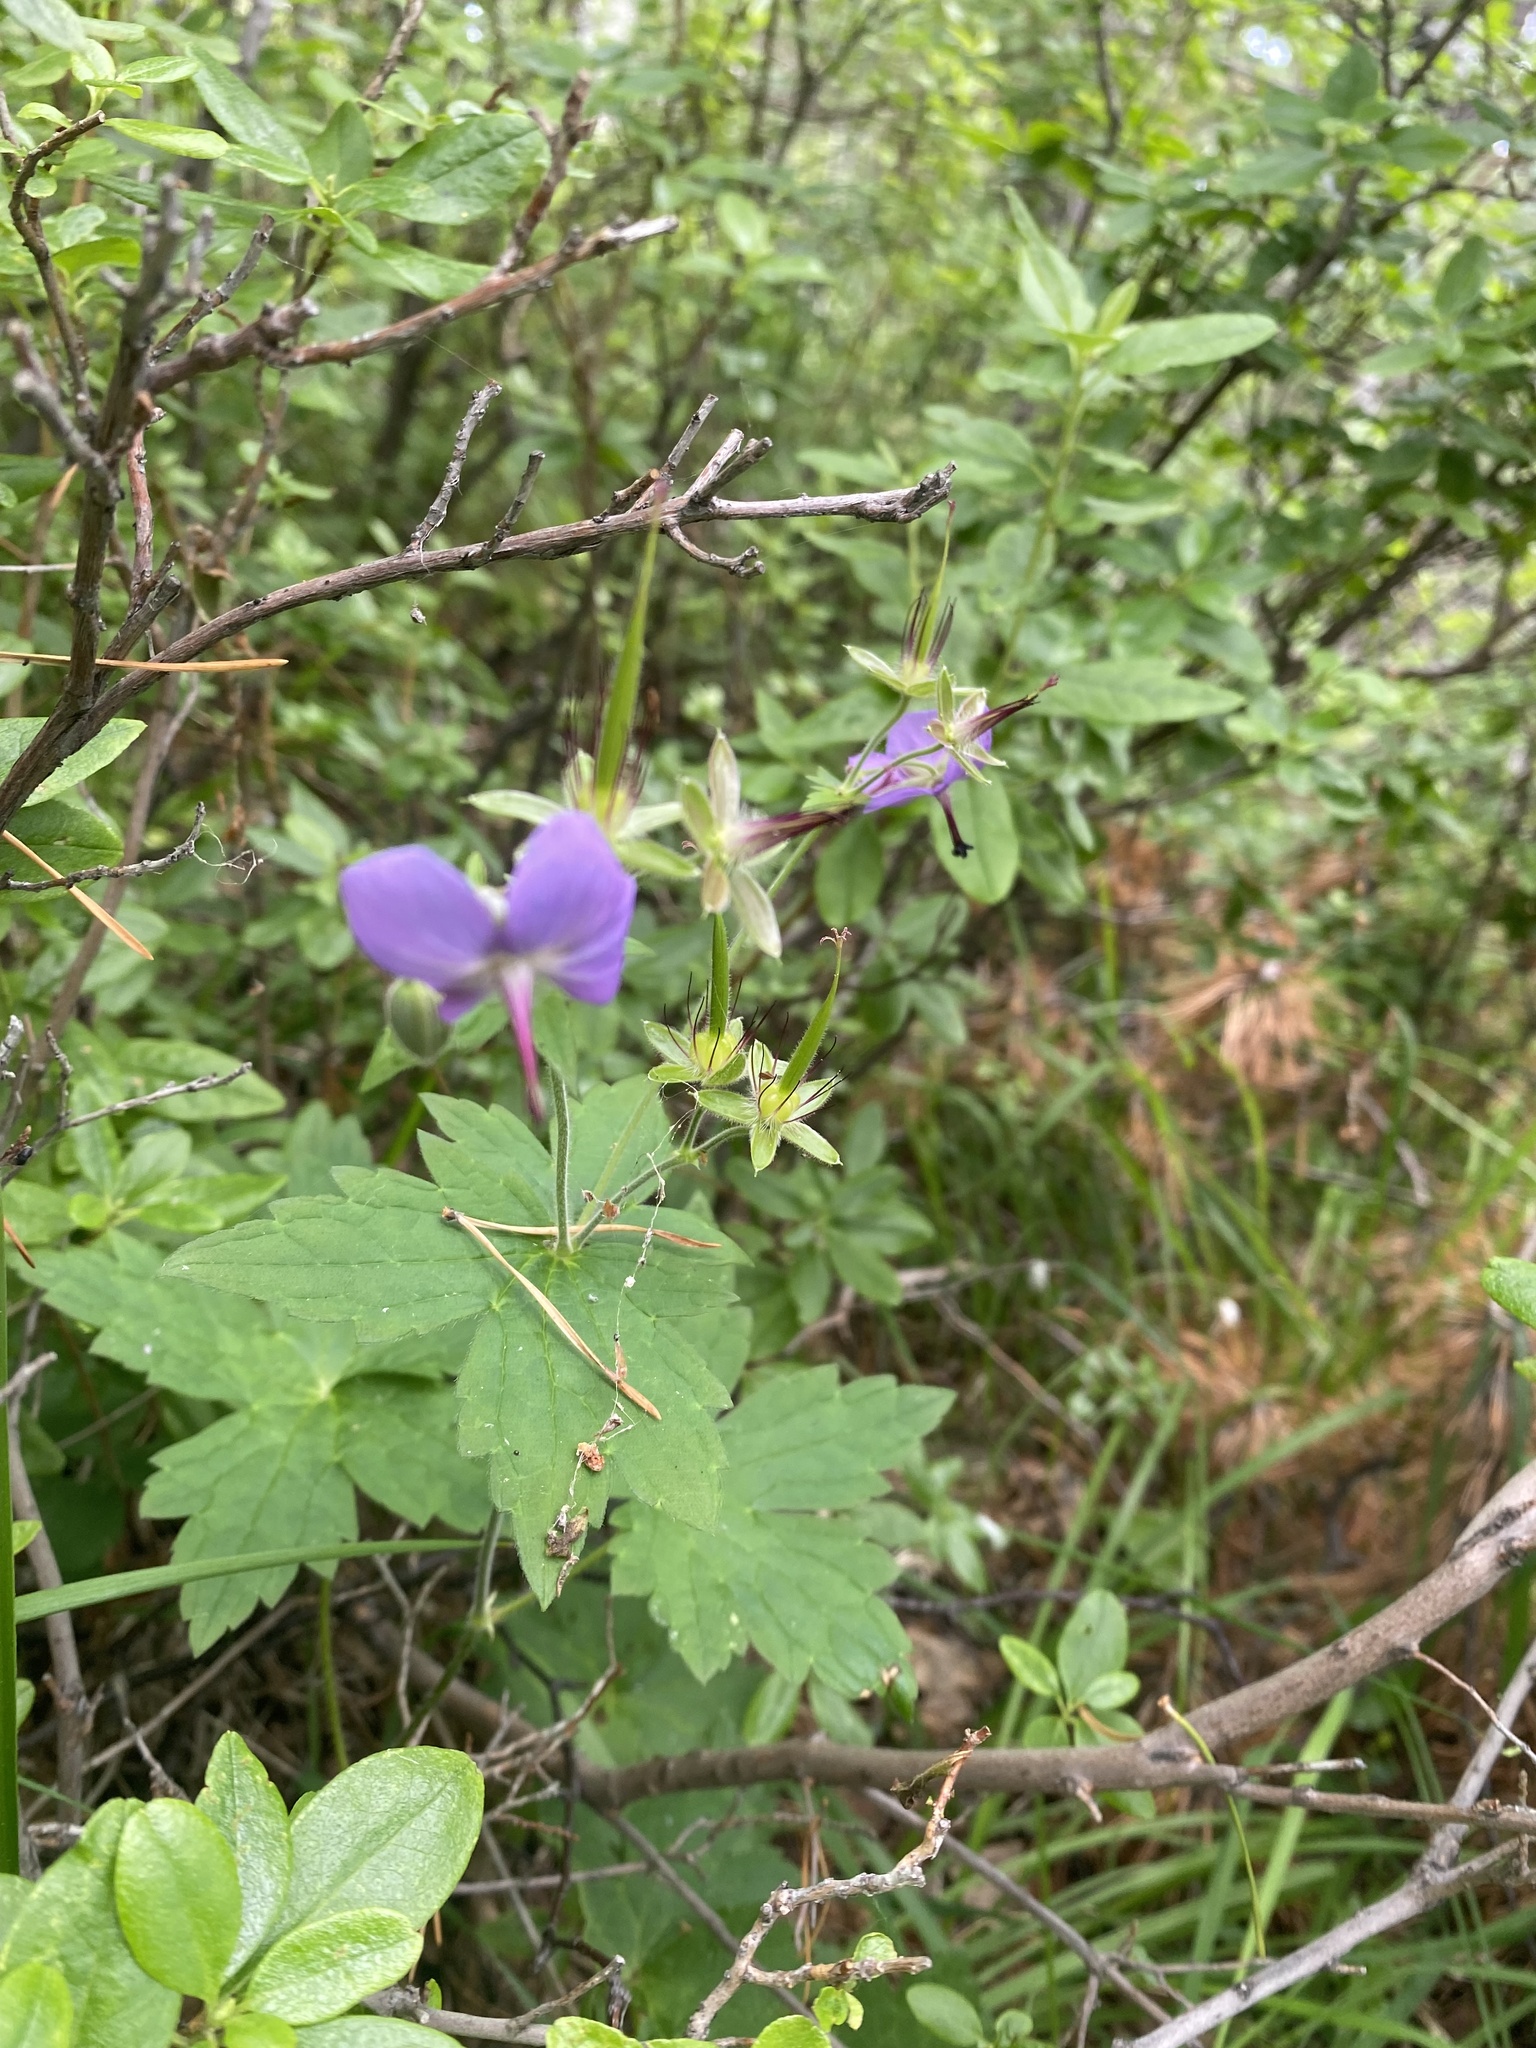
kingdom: Plantae
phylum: Tracheophyta
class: Magnoliopsida
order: Geraniales
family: Geraniaceae
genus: Geranium
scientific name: Geranium platyanthum
